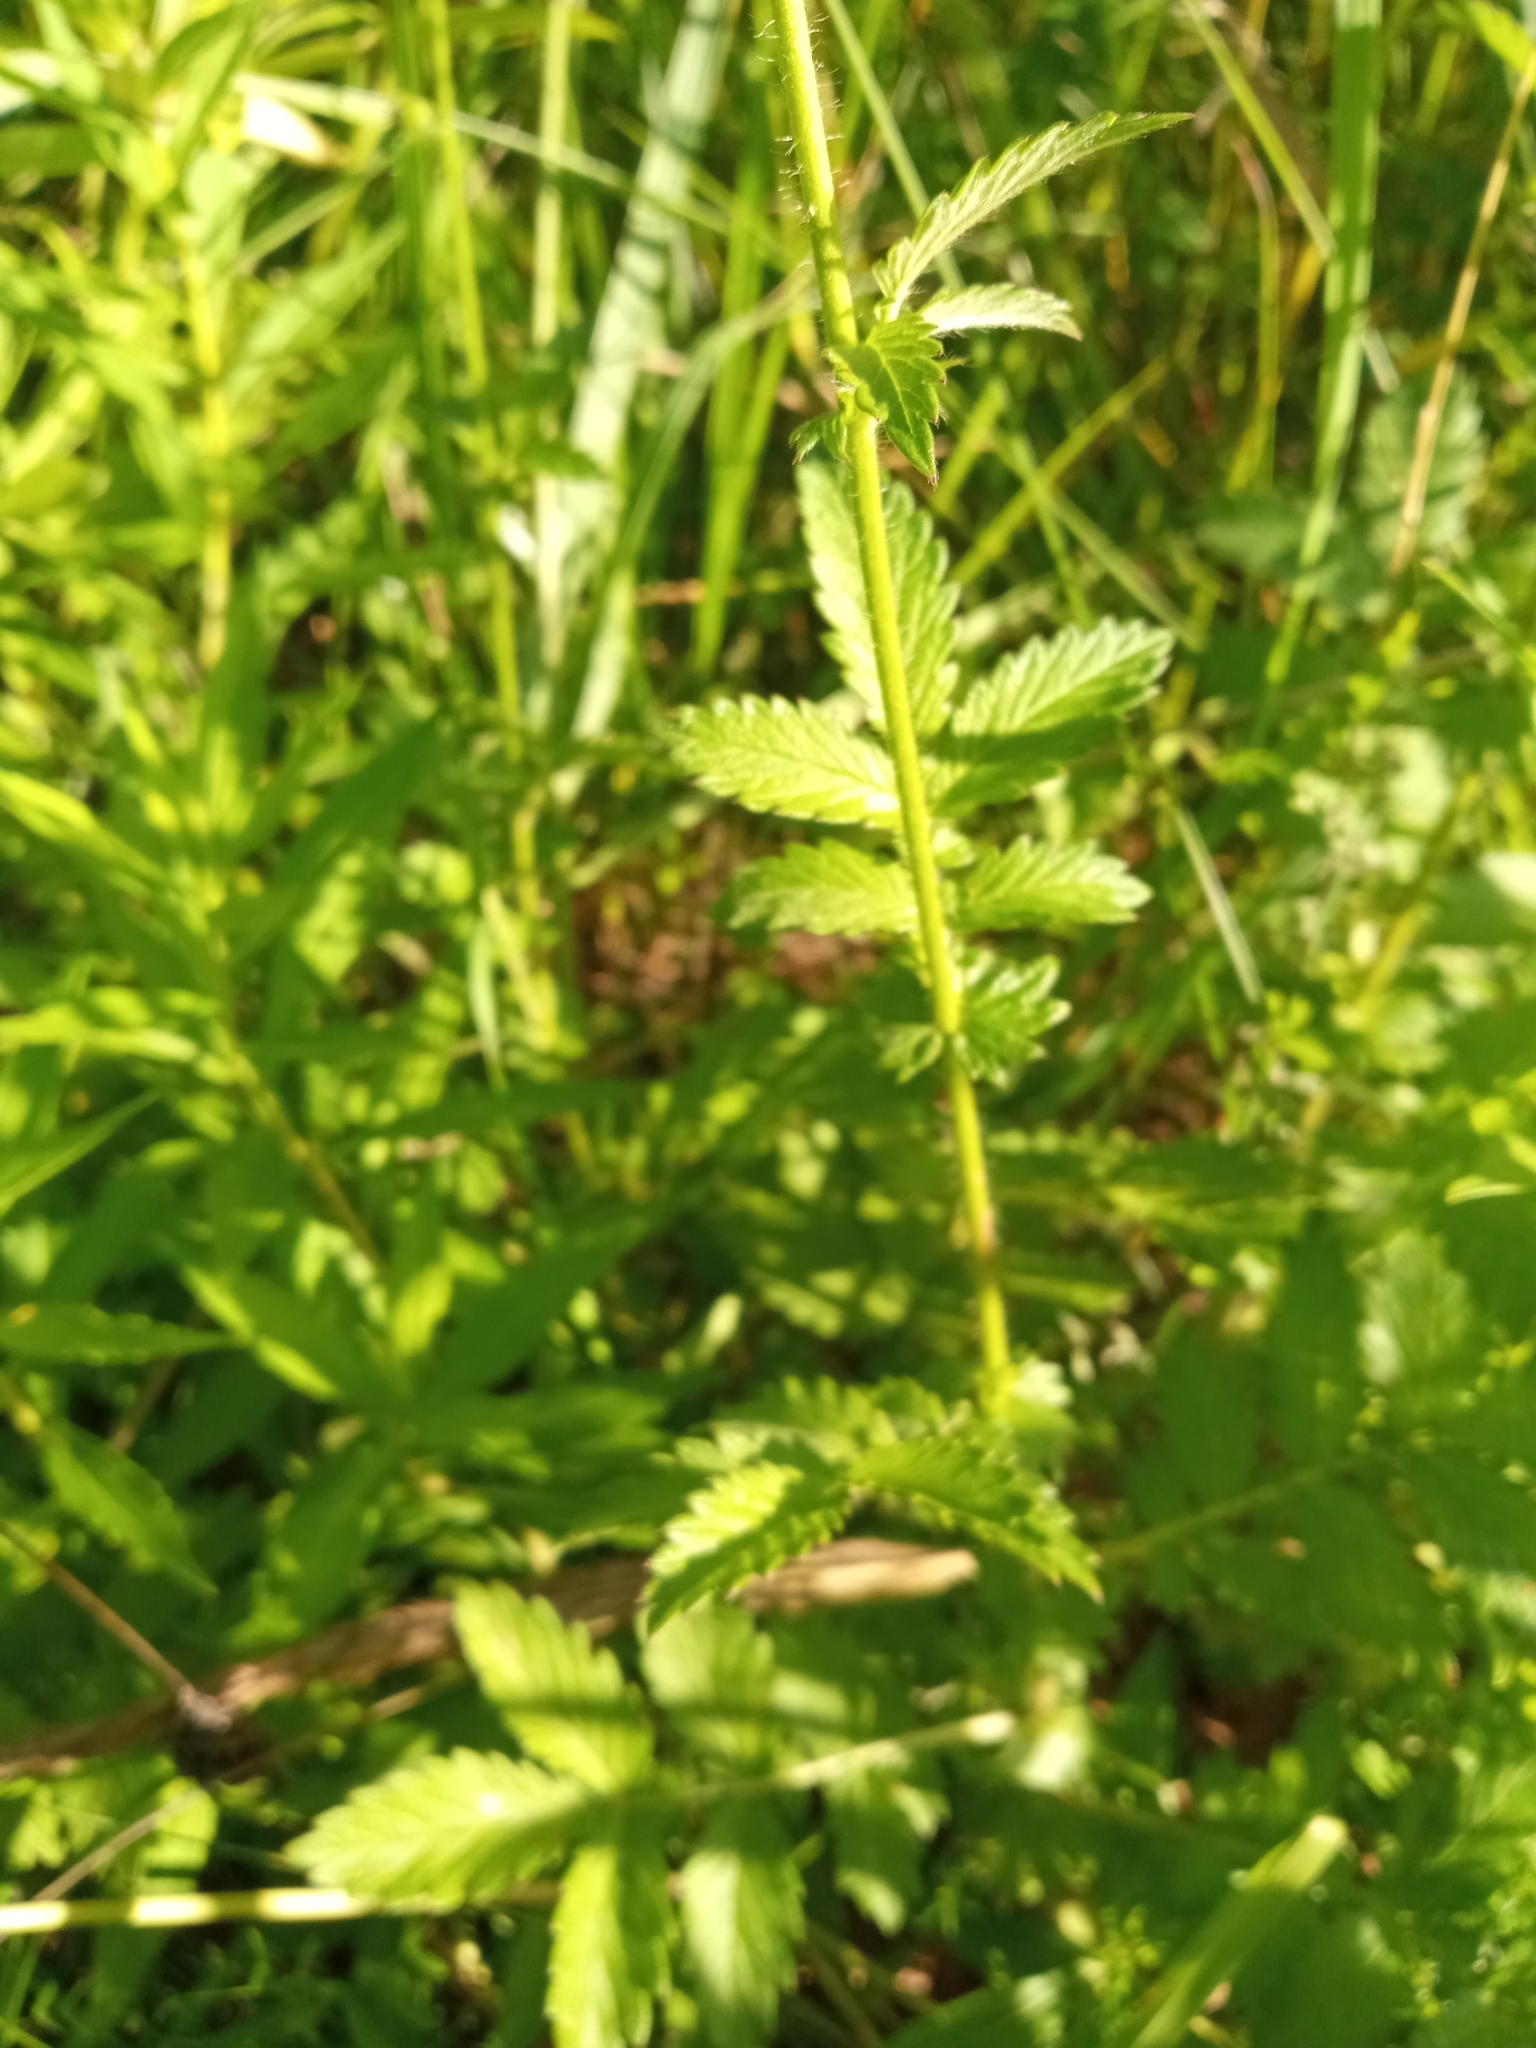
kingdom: Plantae
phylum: Tracheophyta
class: Magnoliopsida
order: Rosales
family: Rosaceae
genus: Agrimonia
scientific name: Agrimonia eupatoria
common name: Agrimony
